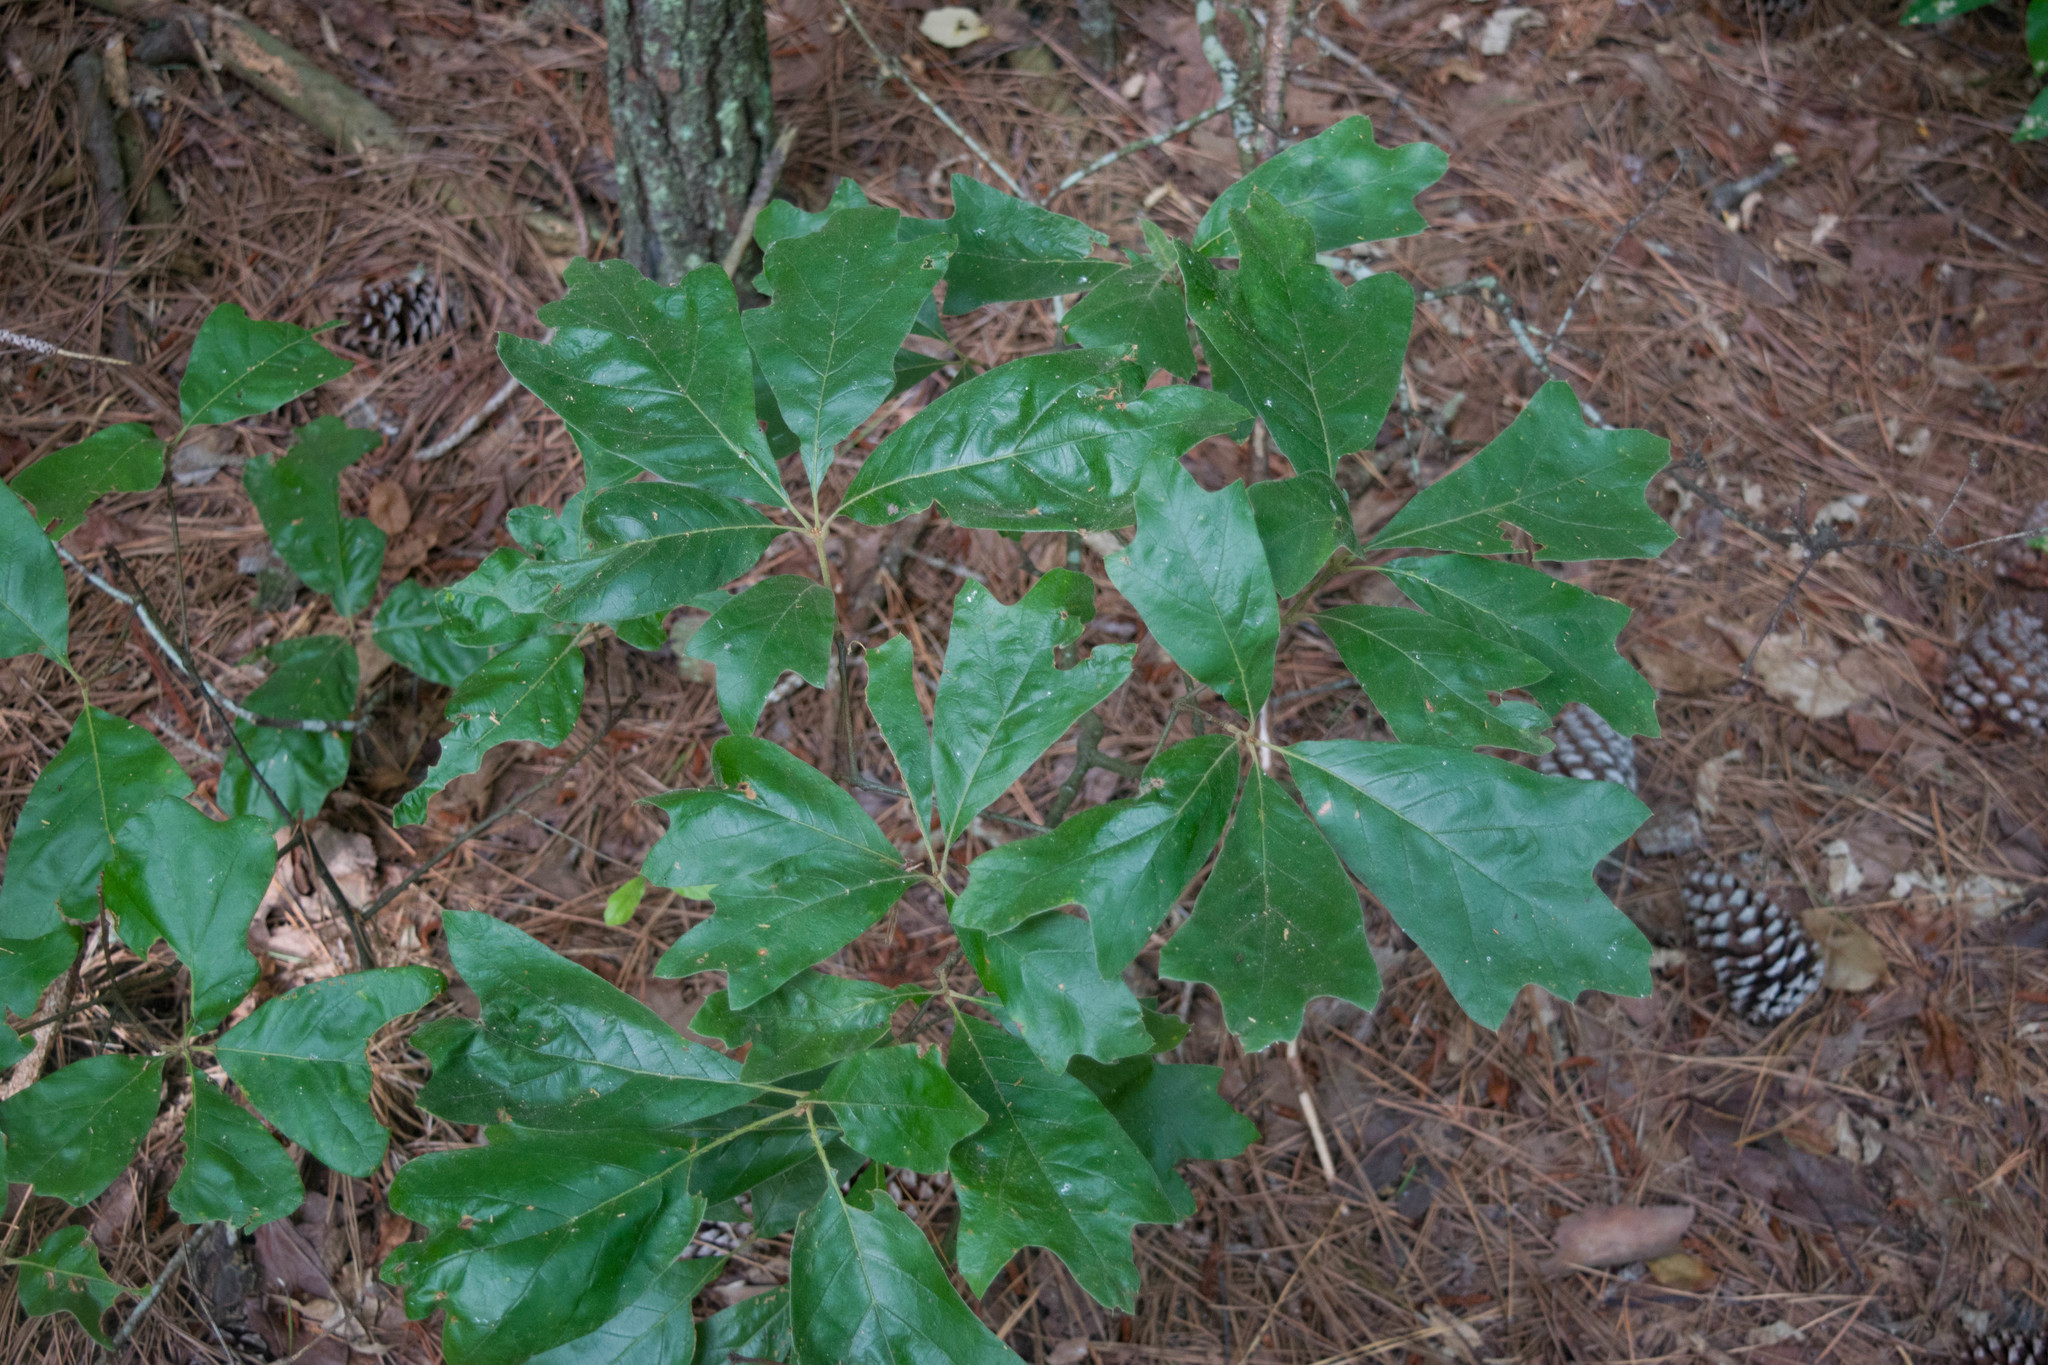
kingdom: Plantae
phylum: Tracheophyta
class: Magnoliopsida
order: Fagales
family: Fagaceae
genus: Quercus
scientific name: Quercus falcata
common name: Southern red oak
